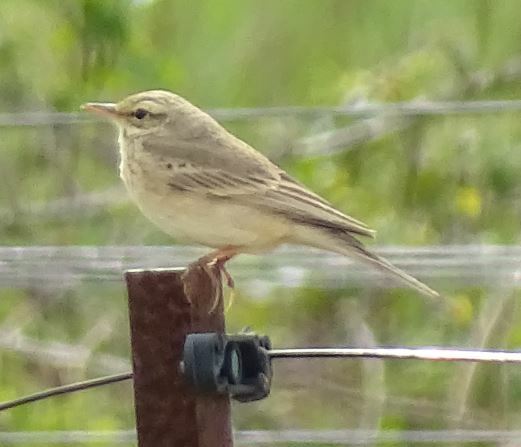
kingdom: Animalia
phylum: Chordata
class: Aves
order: Passeriformes
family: Motacillidae
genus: Anthus
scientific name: Anthus campestris
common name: Tawny pipit
